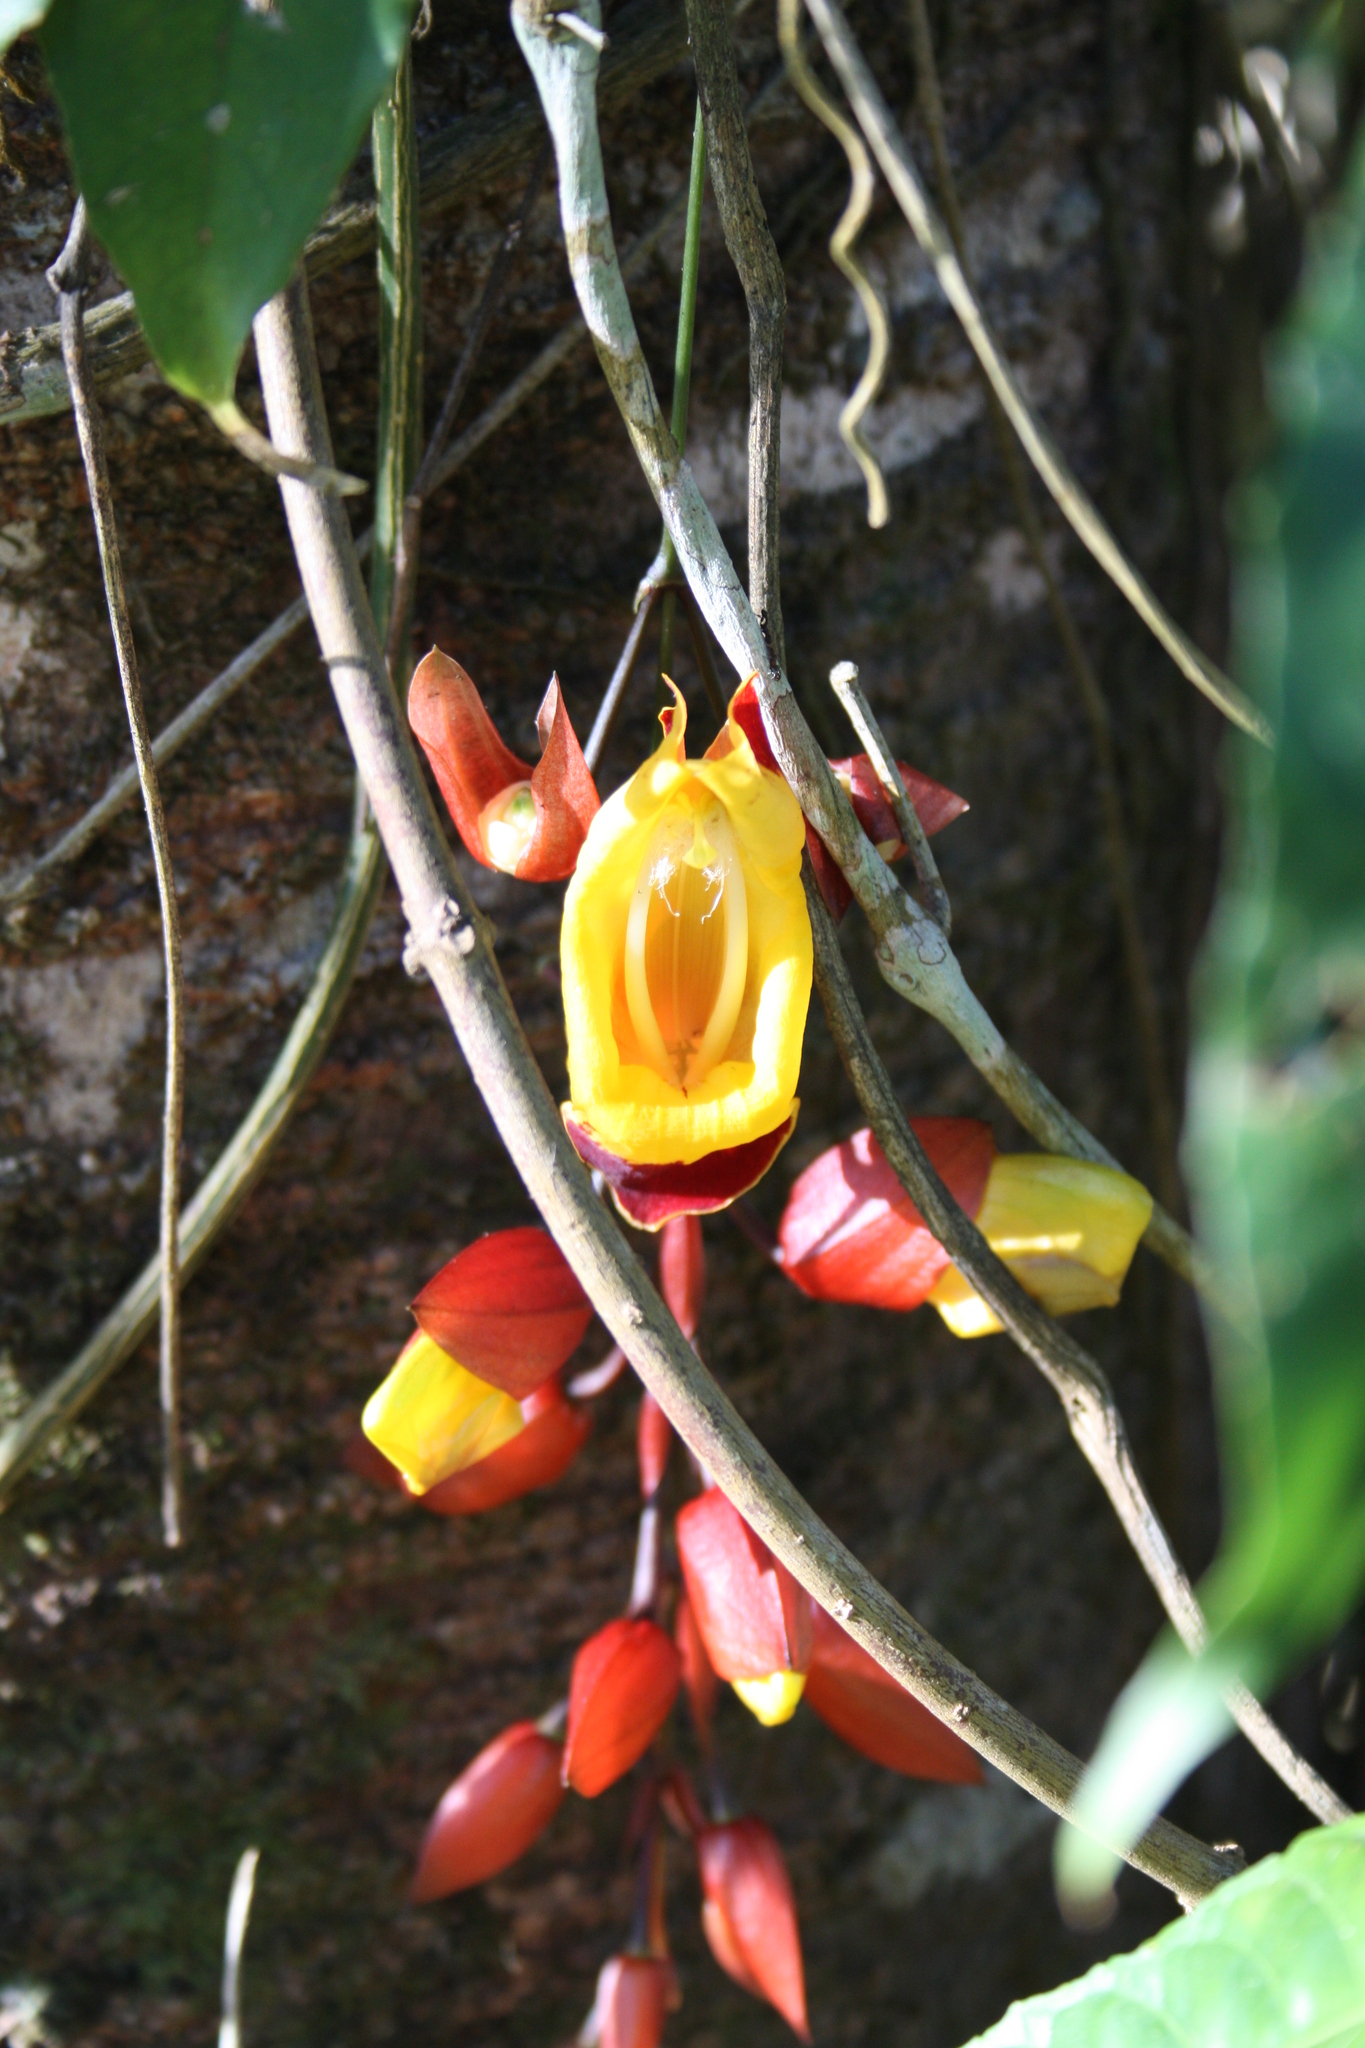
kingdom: Plantae
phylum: Tracheophyta
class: Magnoliopsida
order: Lamiales
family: Acanthaceae
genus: Thunbergia
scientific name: Thunbergia mysorensis
